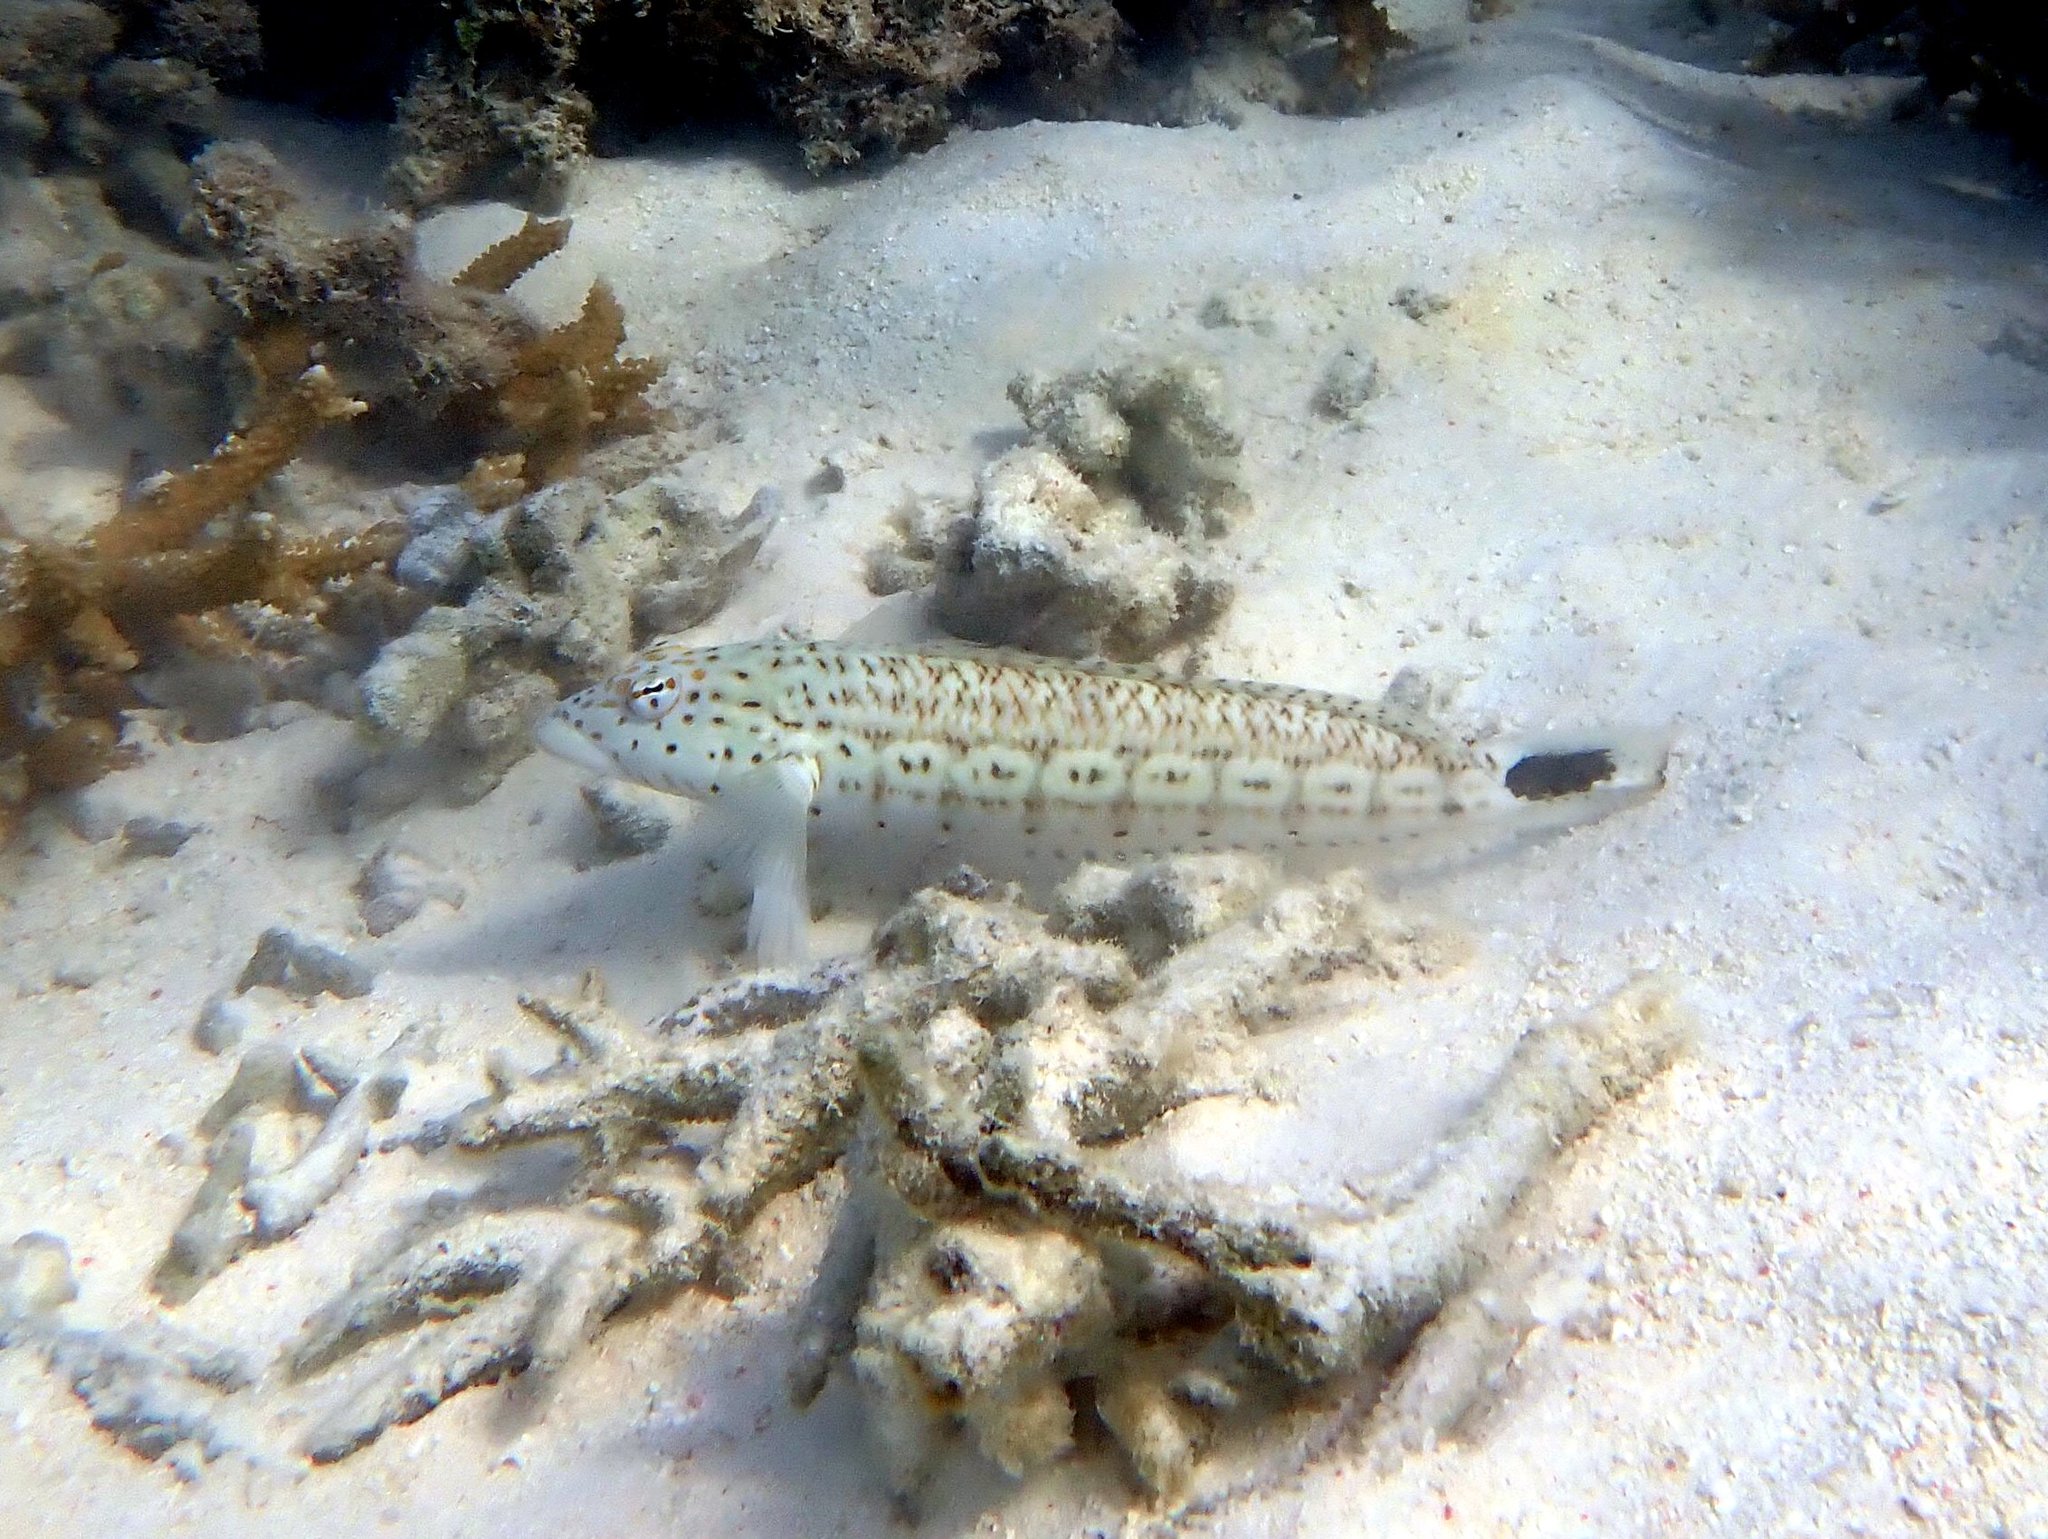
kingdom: Animalia
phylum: Chordata
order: Perciformes
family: Pinguipedidae
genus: Parapercis
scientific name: Parapercis queenslandica
